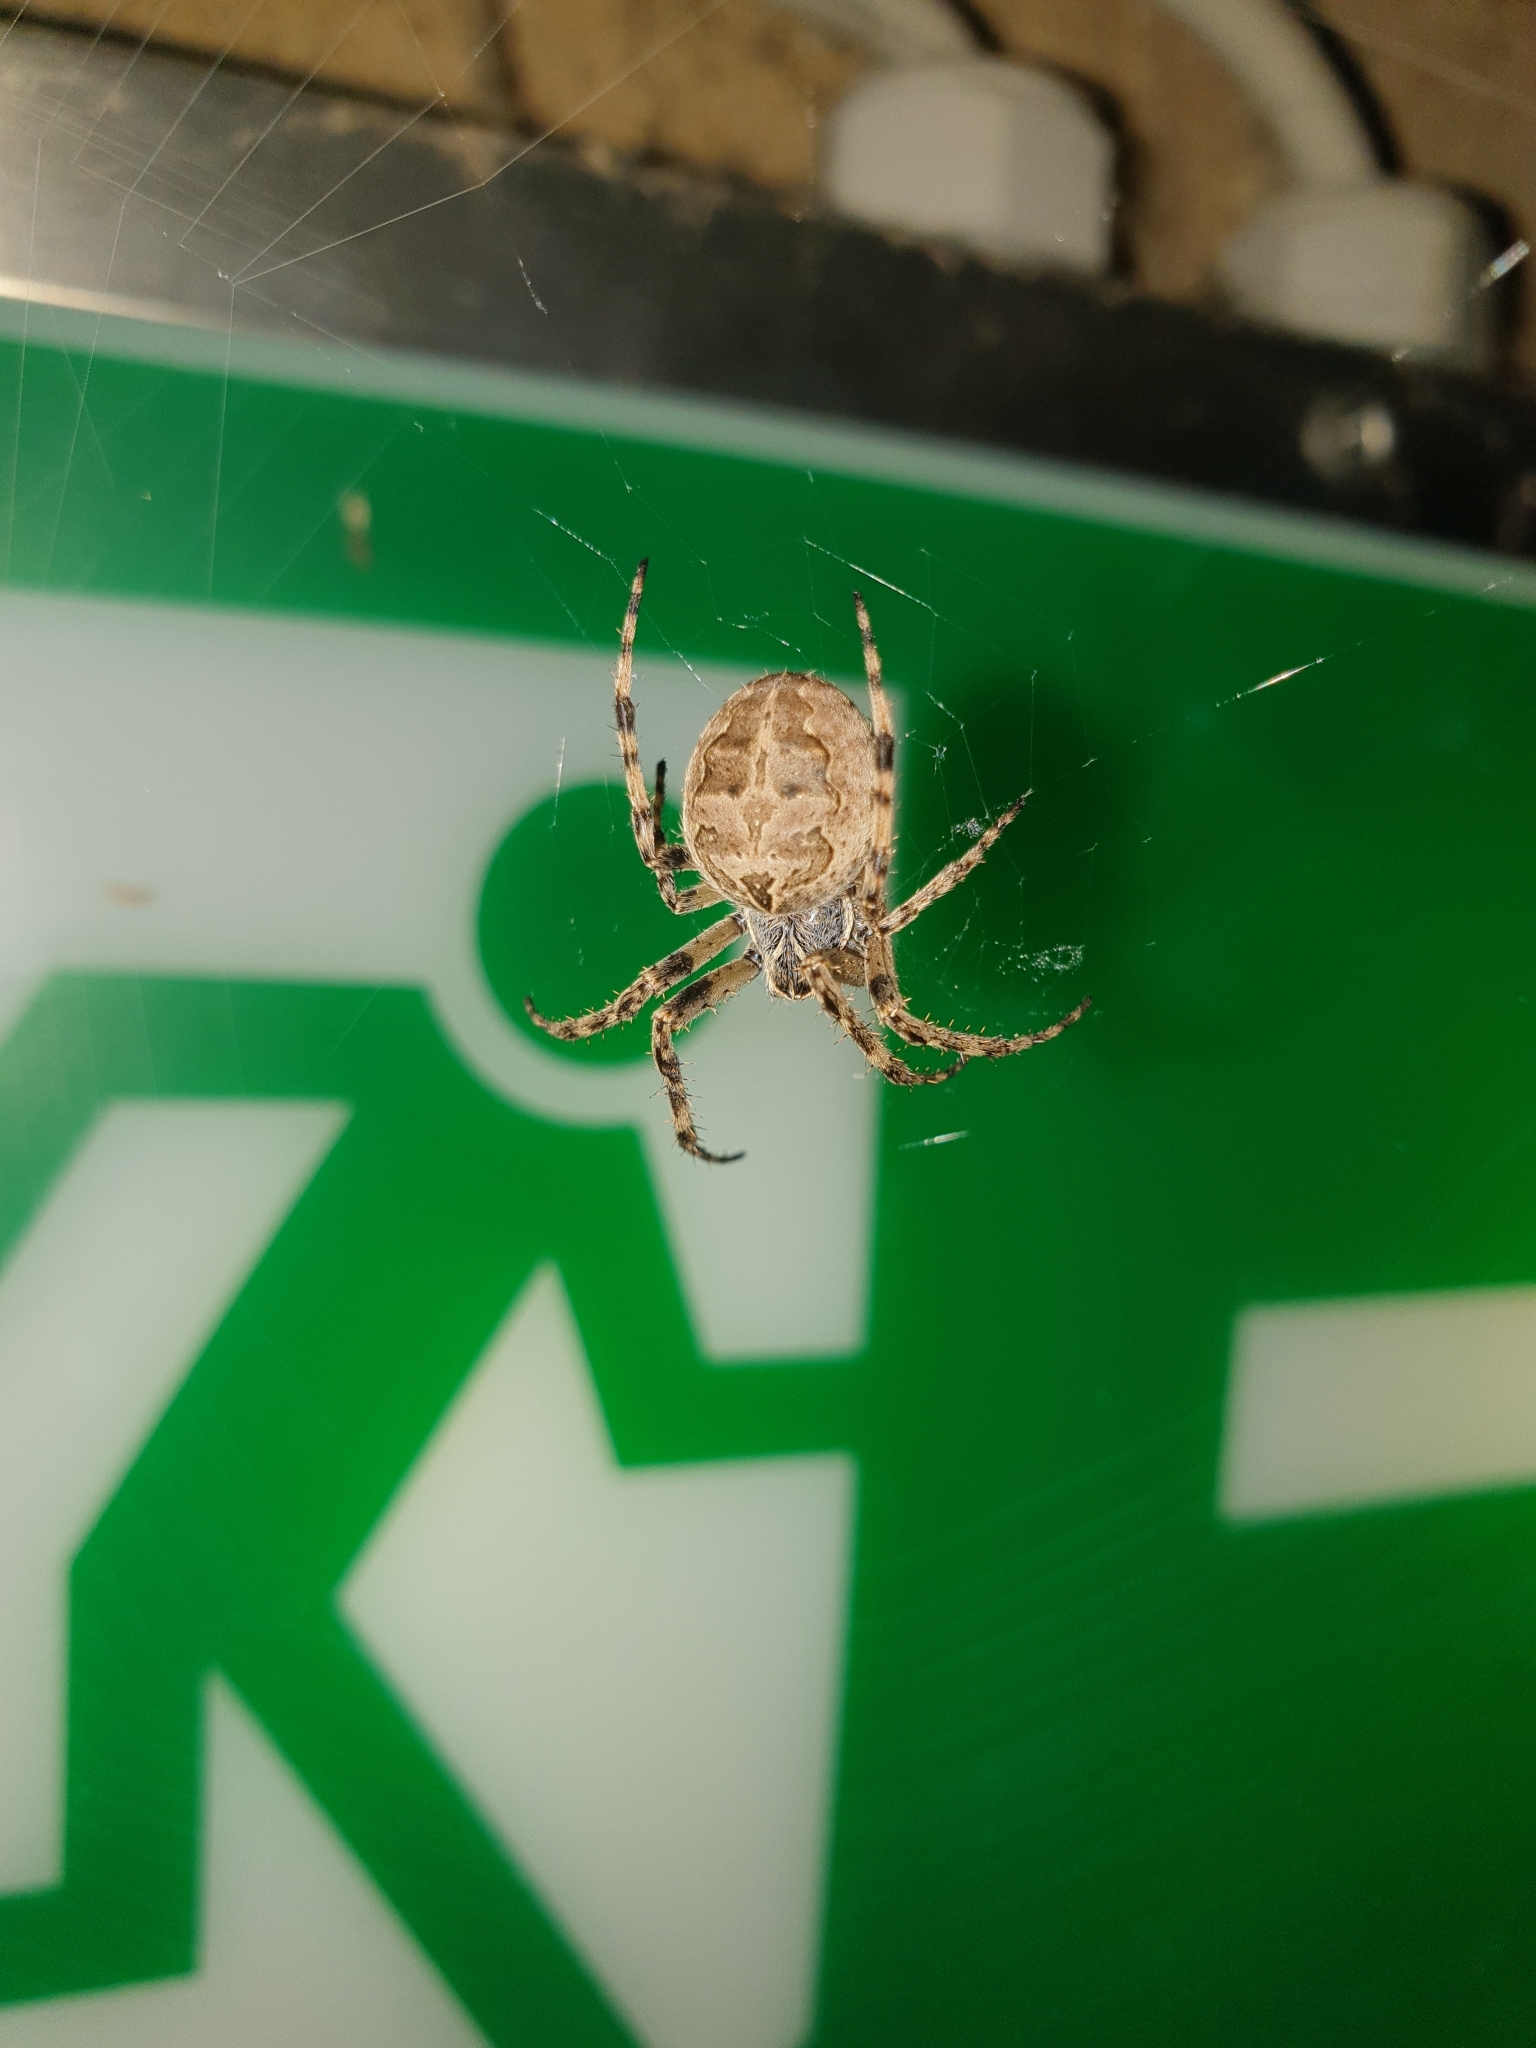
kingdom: Animalia
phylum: Arthropoda
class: Arachnida
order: Araneae
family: Araneidae
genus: Larinioides
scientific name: Larinioides sclopetarius
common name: Bridge orbweaver
